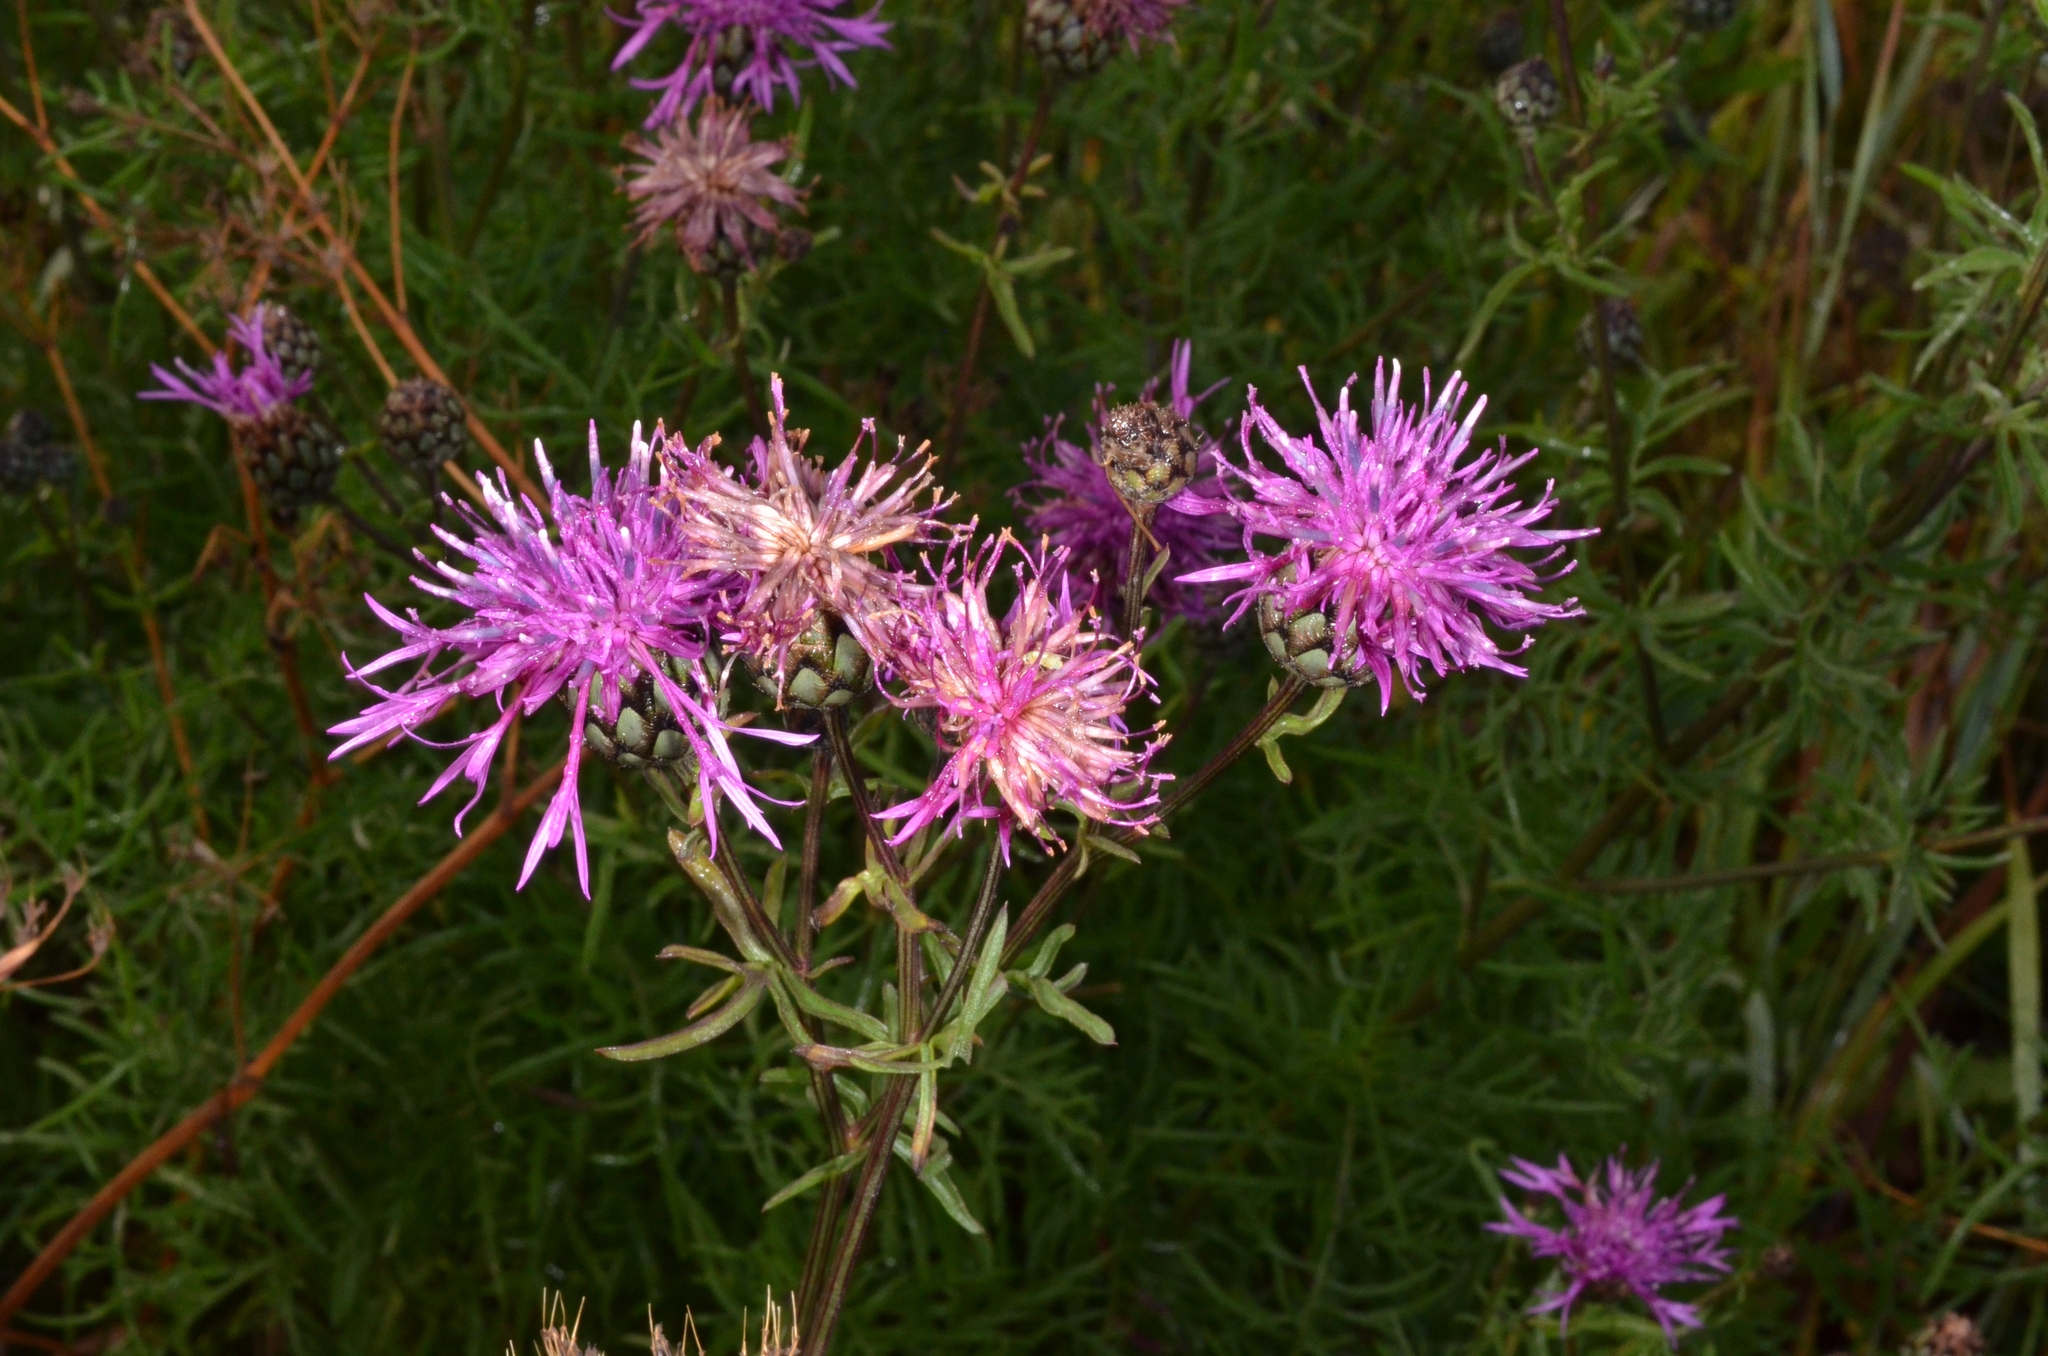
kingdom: Plantae
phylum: Tracheophyta
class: Magnoliopsida
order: Asterales
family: Asteraceae
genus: Centaurea
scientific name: Centaurea scabiosa
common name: Greater knapweed
